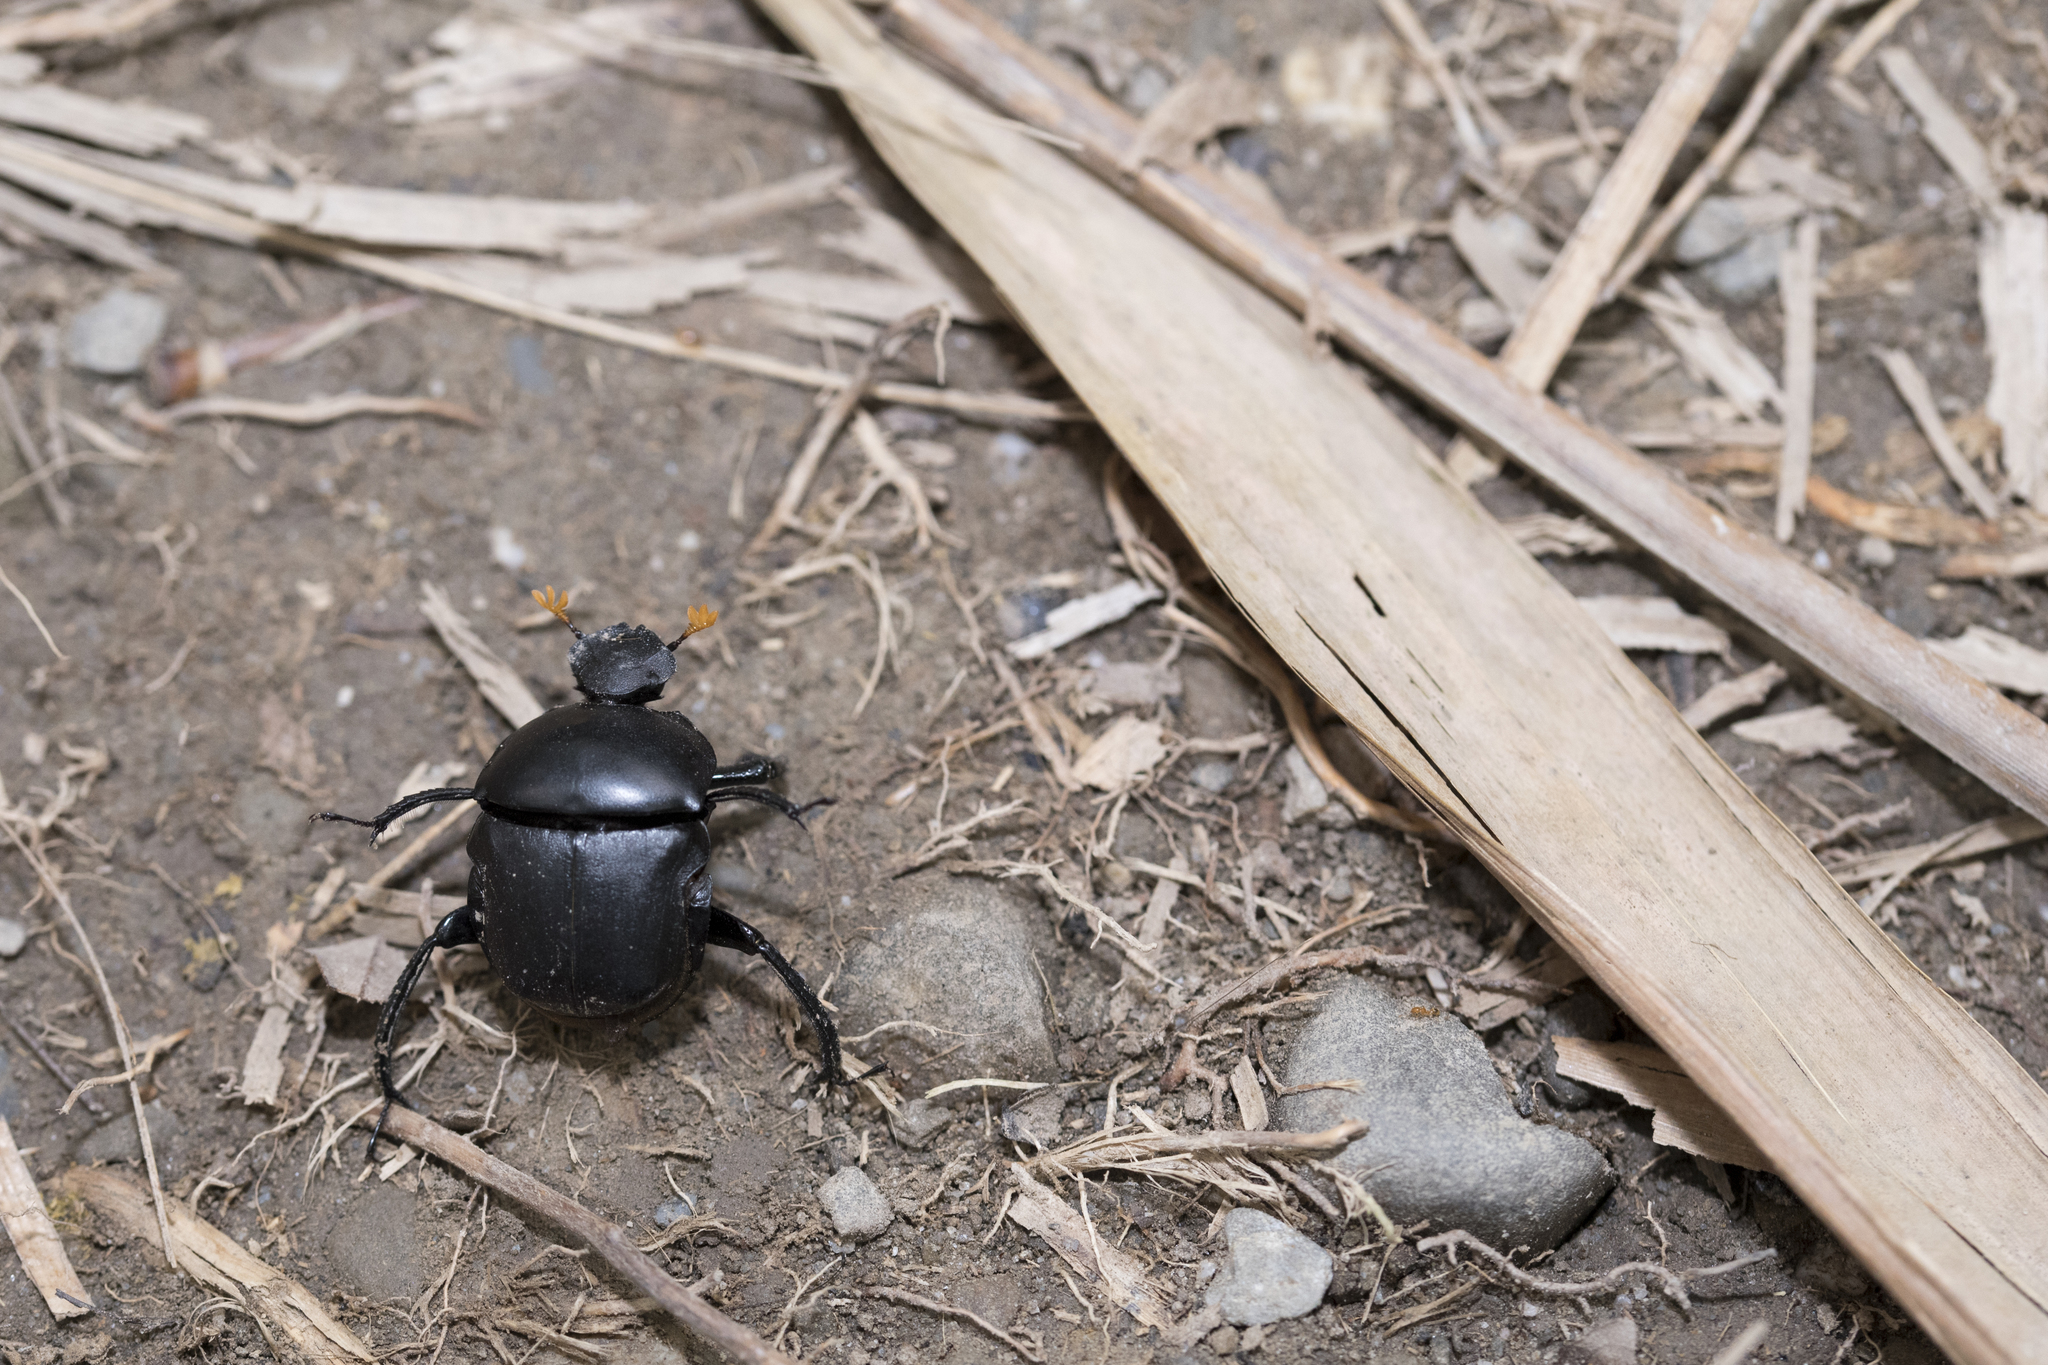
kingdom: Animalia
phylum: Arthropoda
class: Insecta
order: Coleoptera
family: Scarabaeidae
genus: Paragymnopleurus
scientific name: Paragymnopleurus sinuatus
